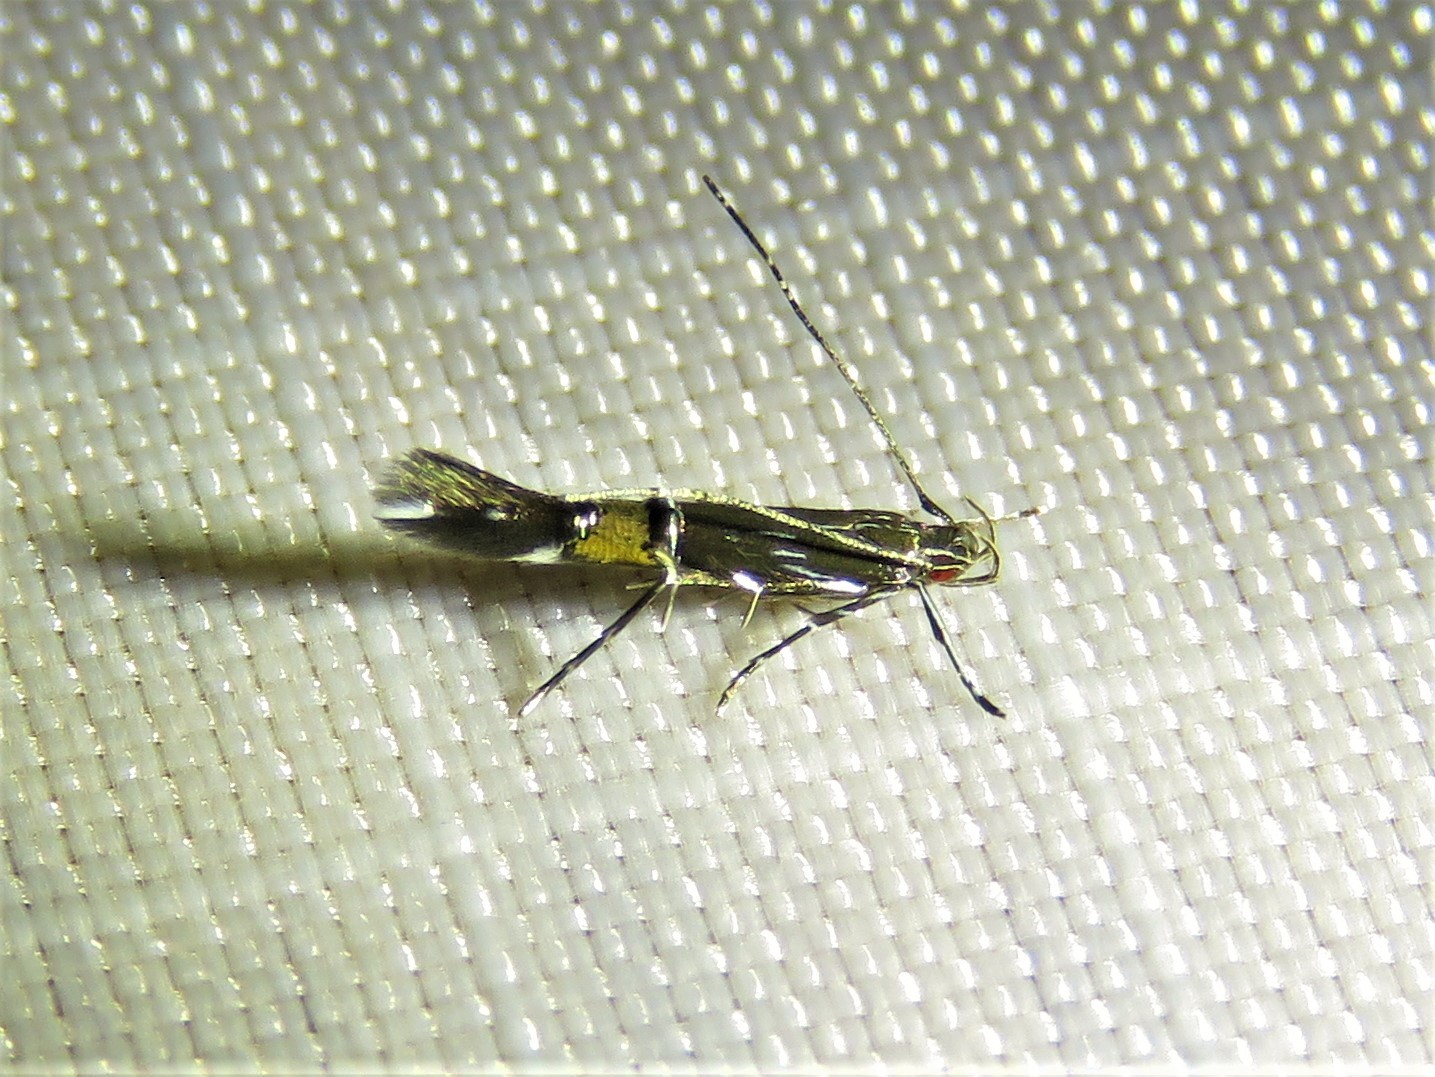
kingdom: Animalia
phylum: Arthropoda
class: Insecta
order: Lepidoptera
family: Cosmopterigidae
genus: Cosmopterix
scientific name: Cosmopterix pulchrimella
